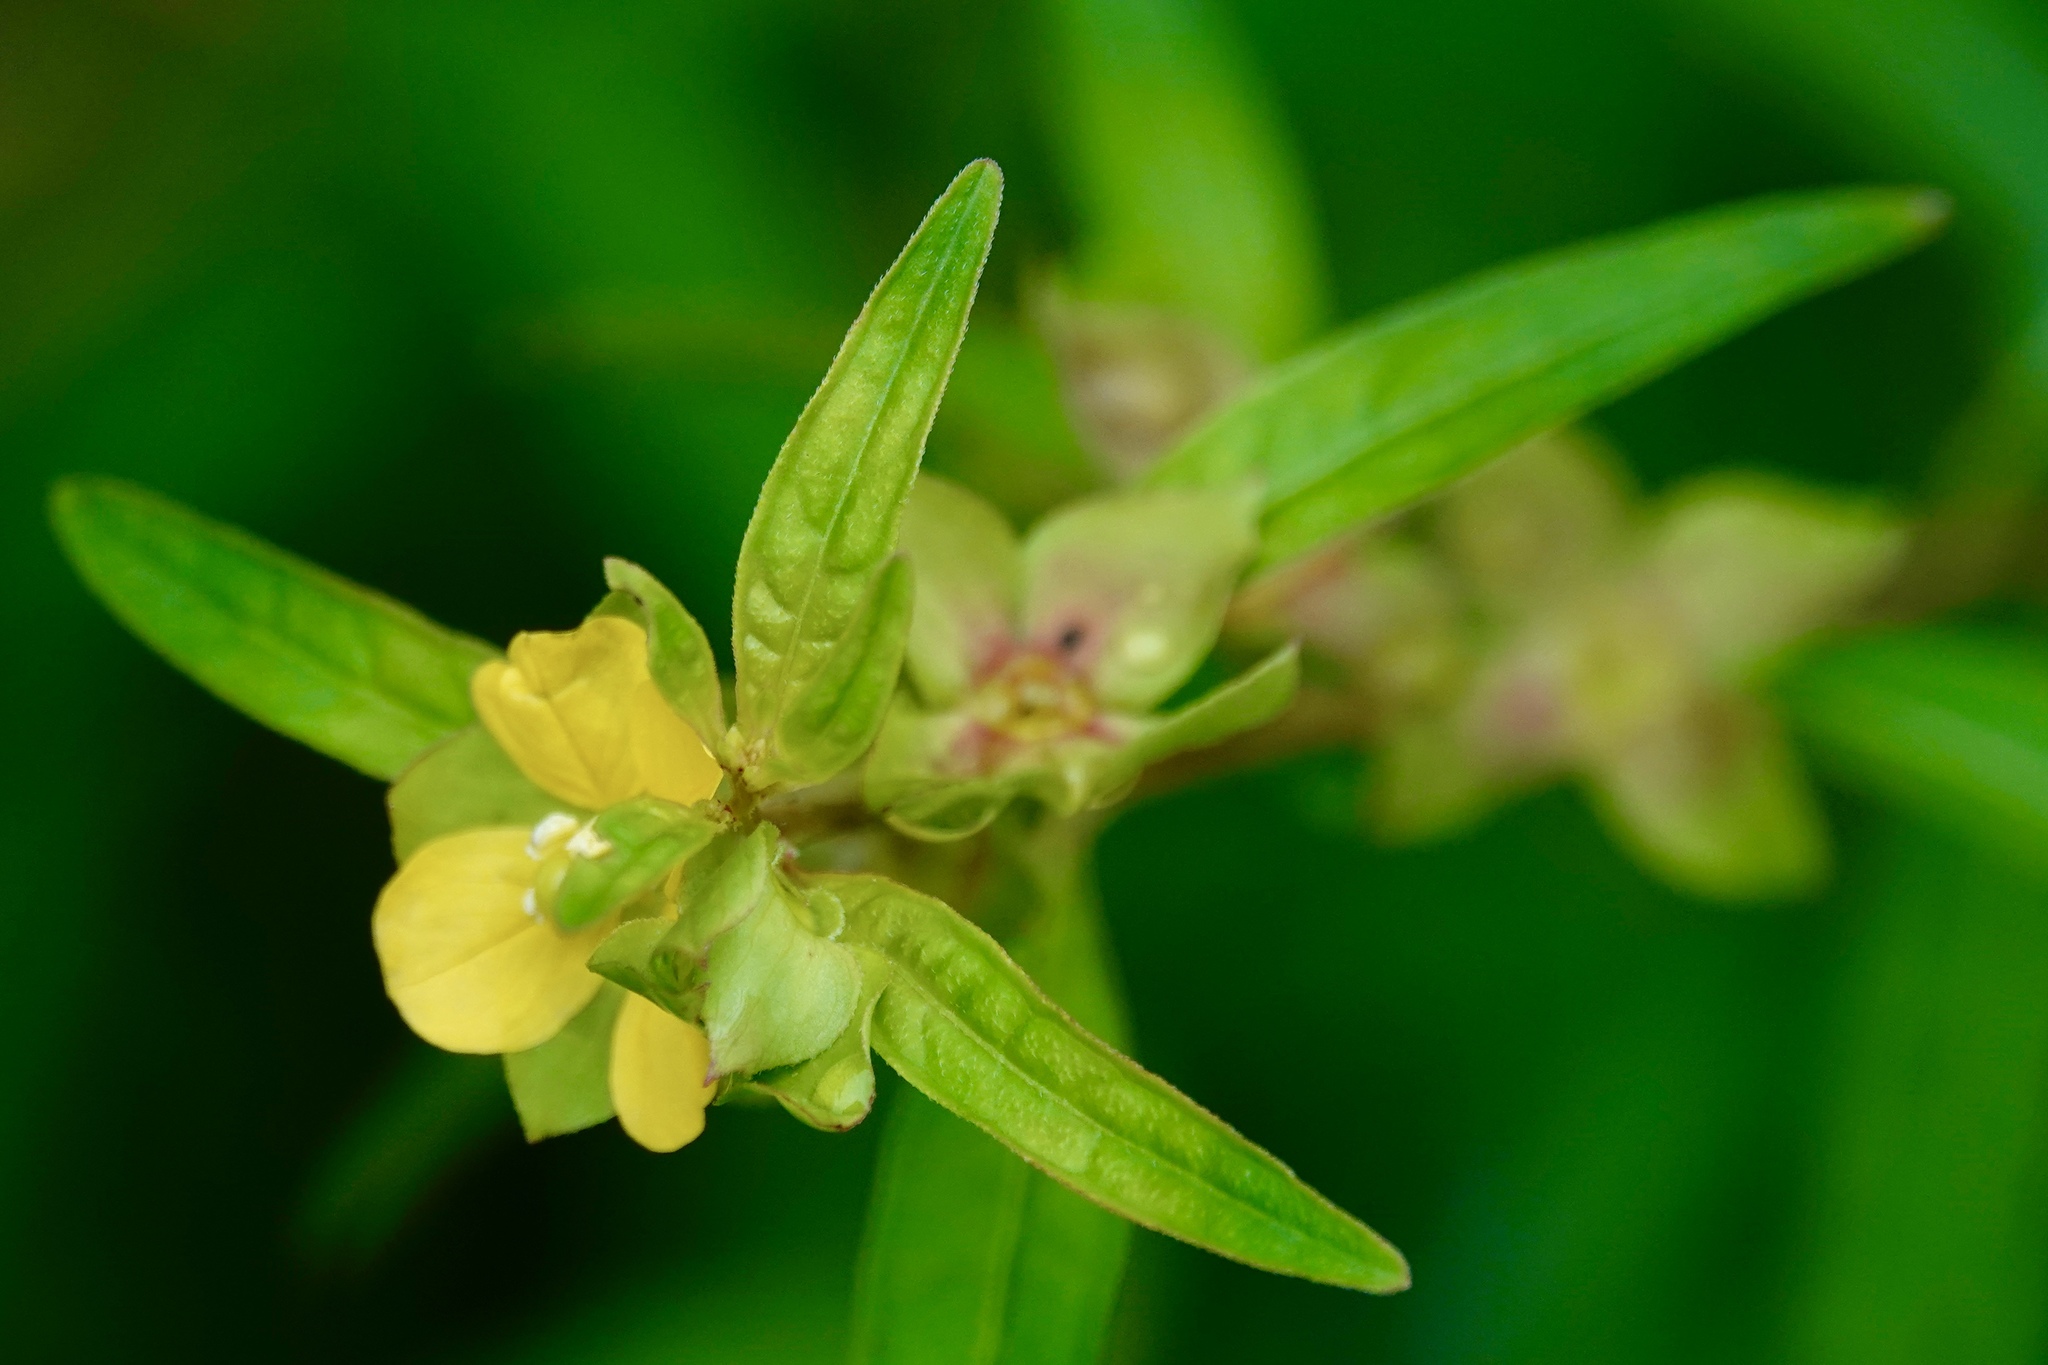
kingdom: Plantae
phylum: Tracheophyta
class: Magnoliopsida
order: Myrtales
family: Onagraceae
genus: Ludwigia
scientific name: Ludwigia alternifolia
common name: Rattlebox
